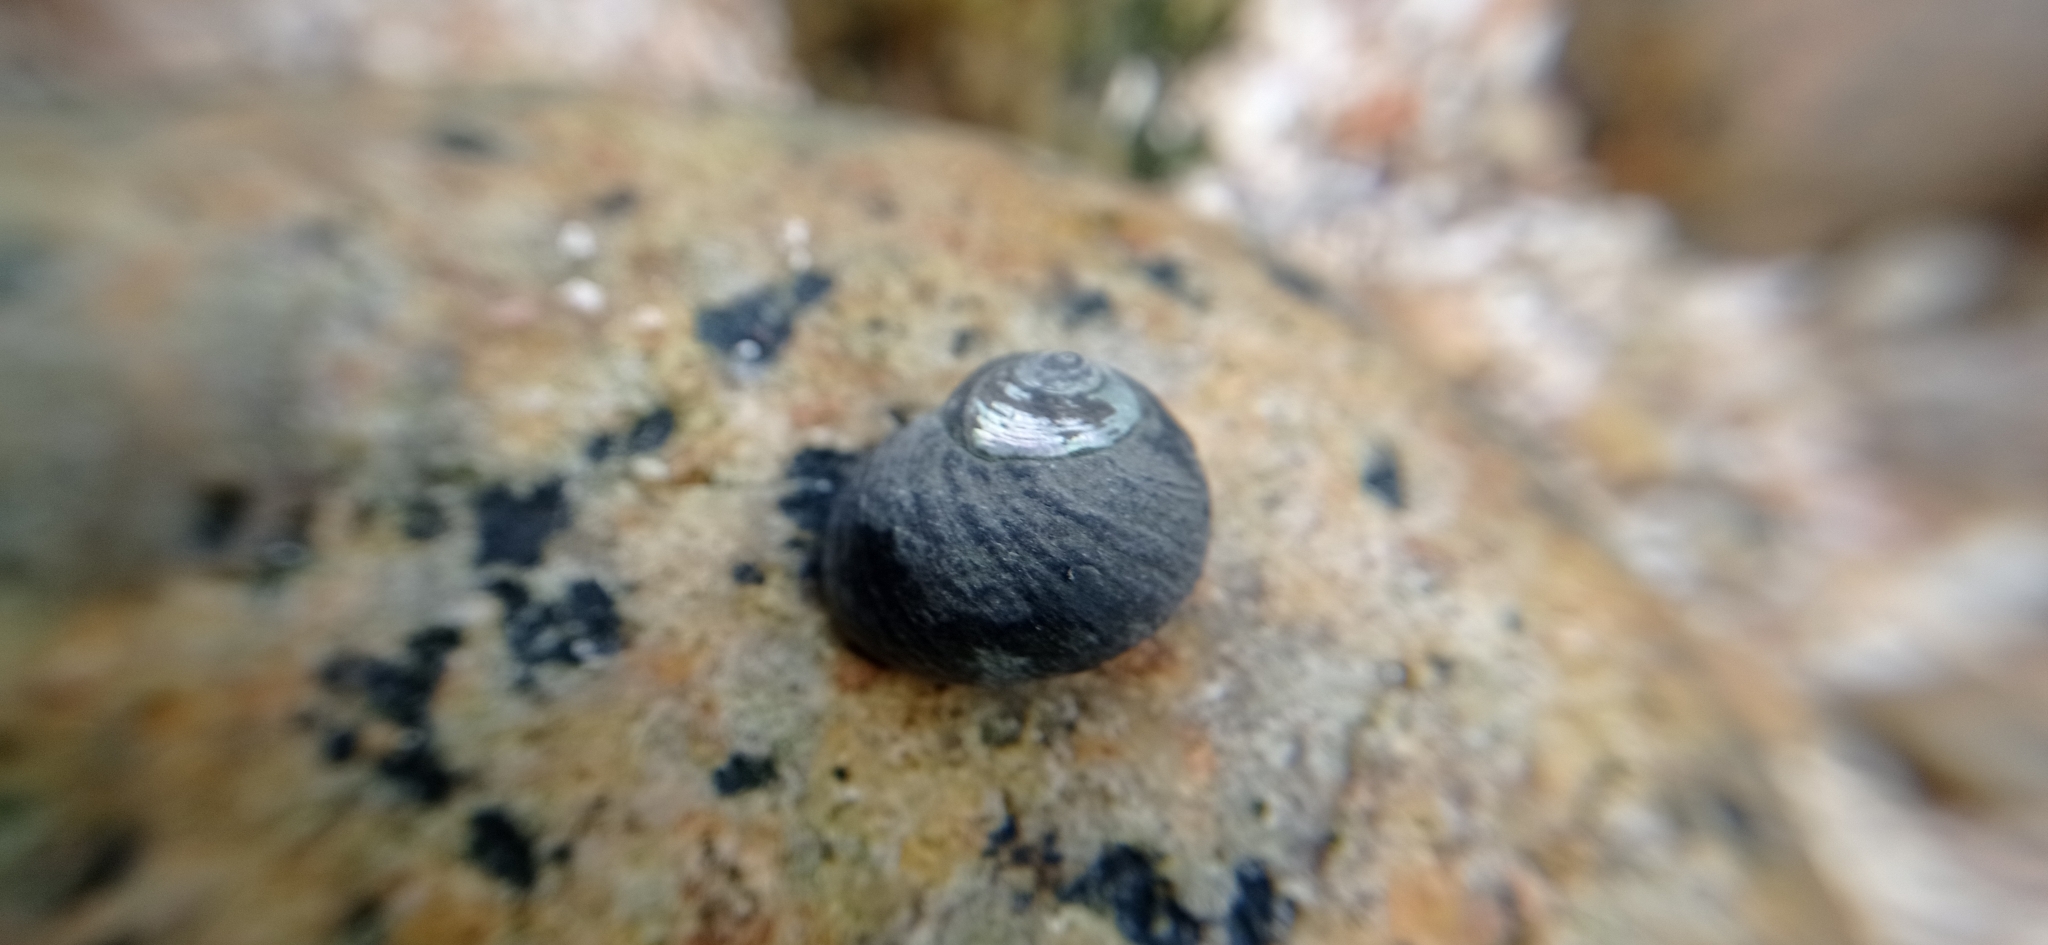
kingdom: Animalia
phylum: Mollusca
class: Gastropoda
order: Trochida
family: Trochidae
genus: Diloma
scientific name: Diloma nigerrimum
